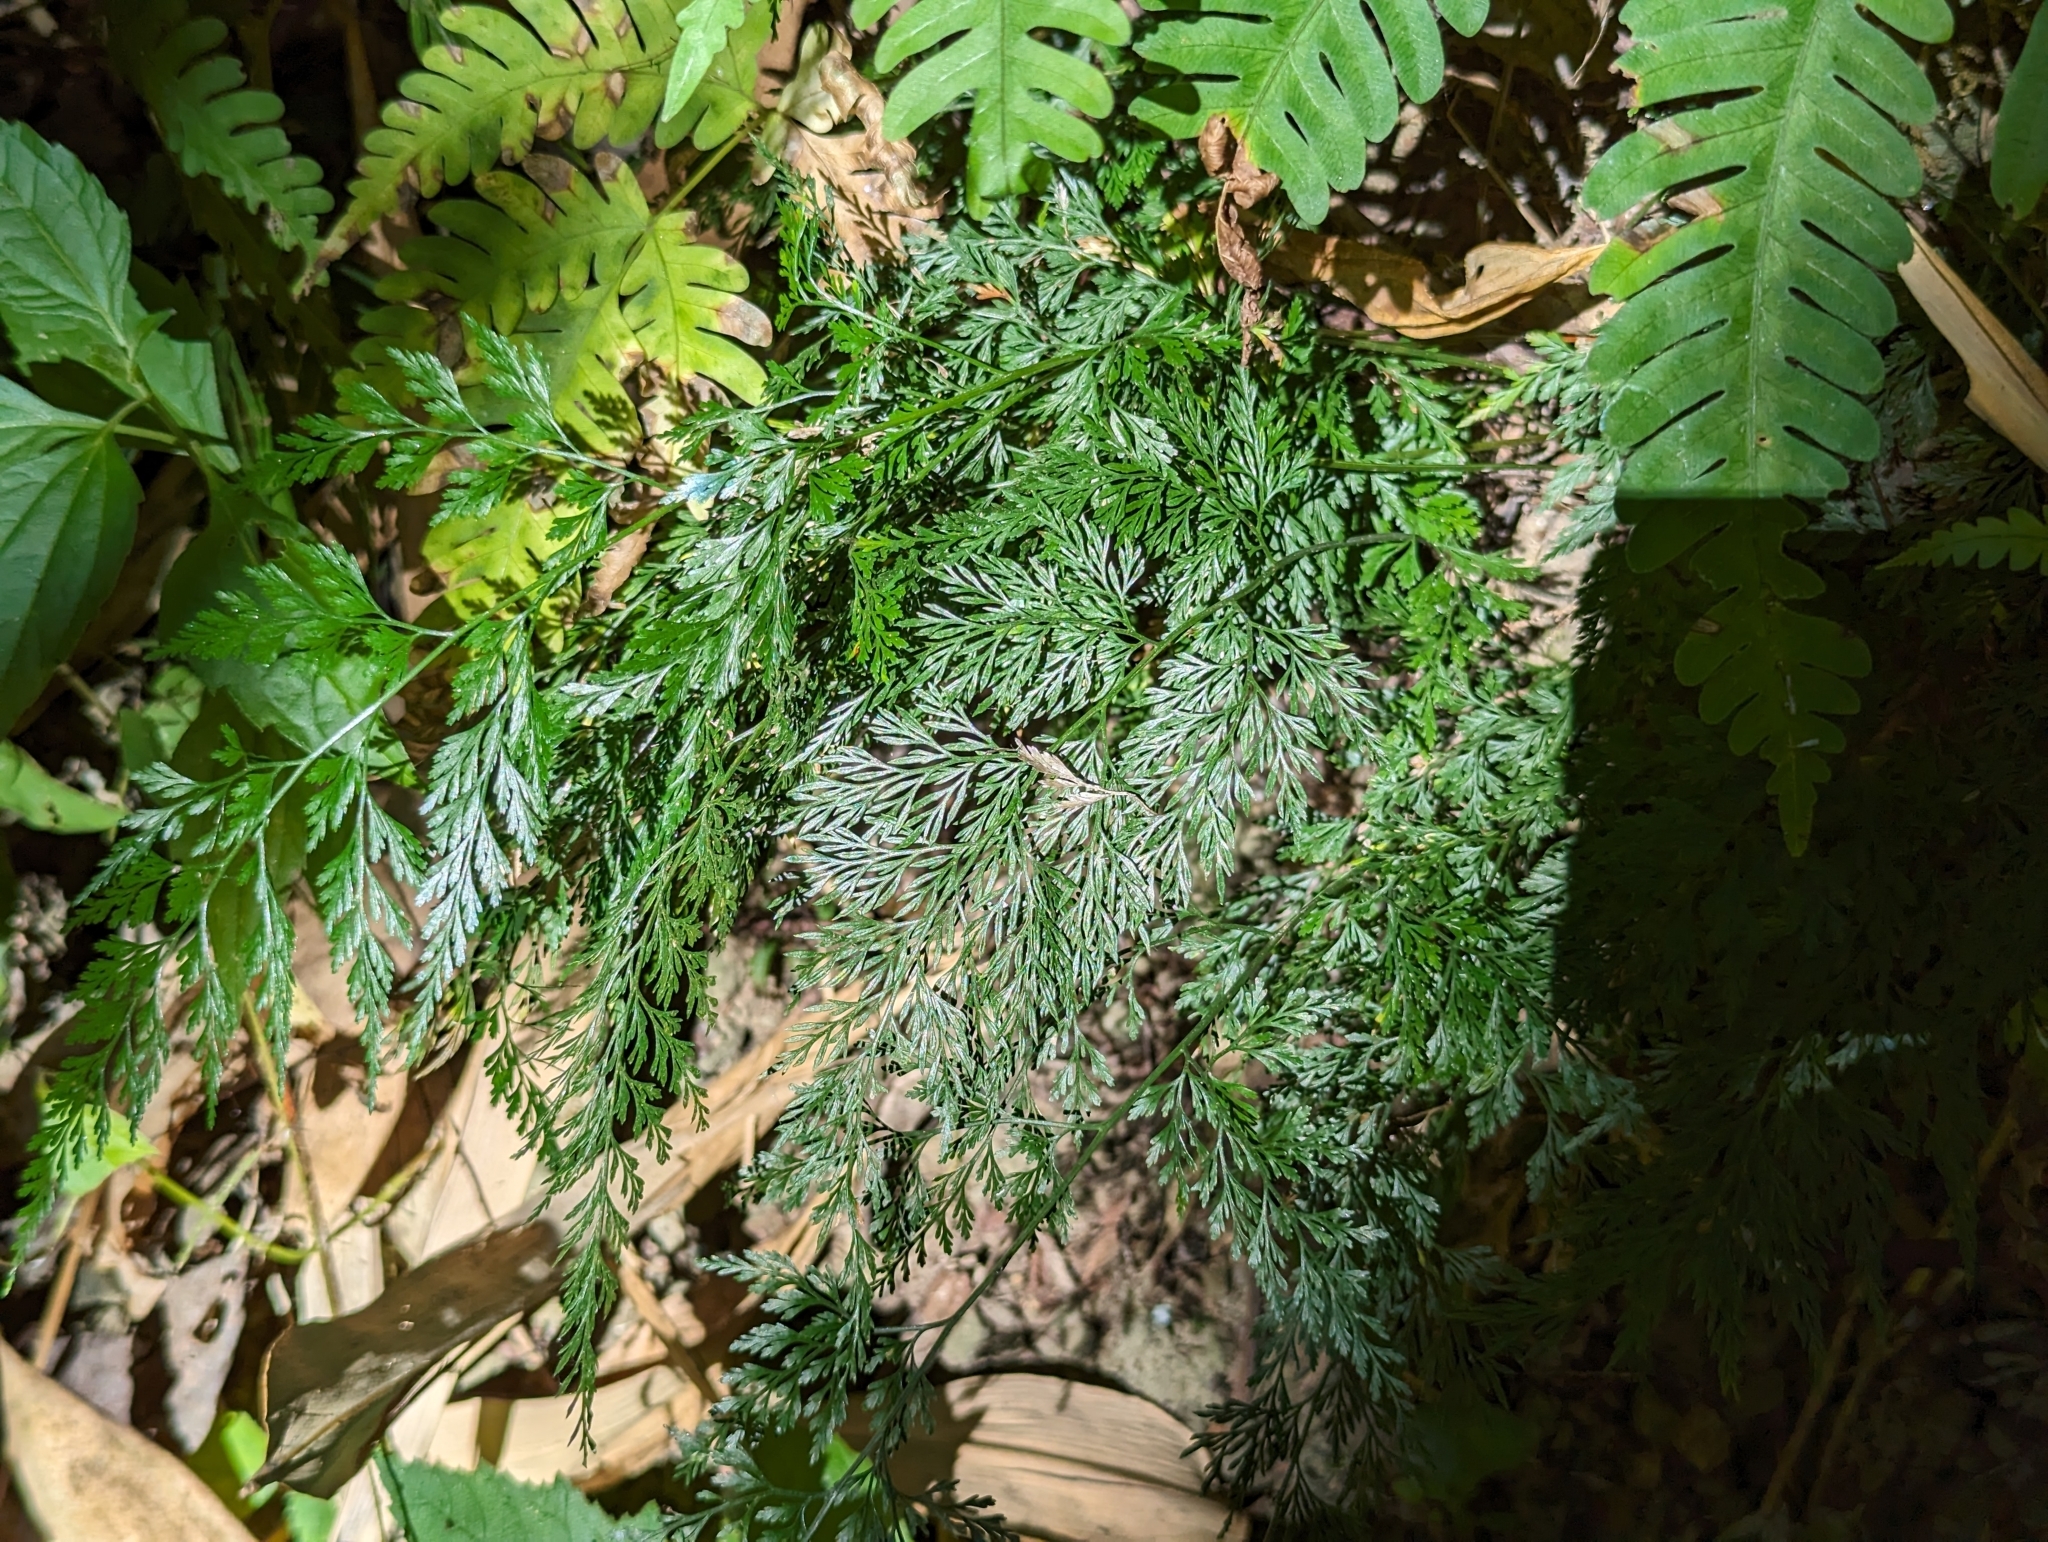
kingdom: Plantae
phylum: Tracheophyta
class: Polypodiopsida
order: Polypodiales
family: Pteridaceae
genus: Onychium
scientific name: Onychium japonicum
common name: Carrot fern
